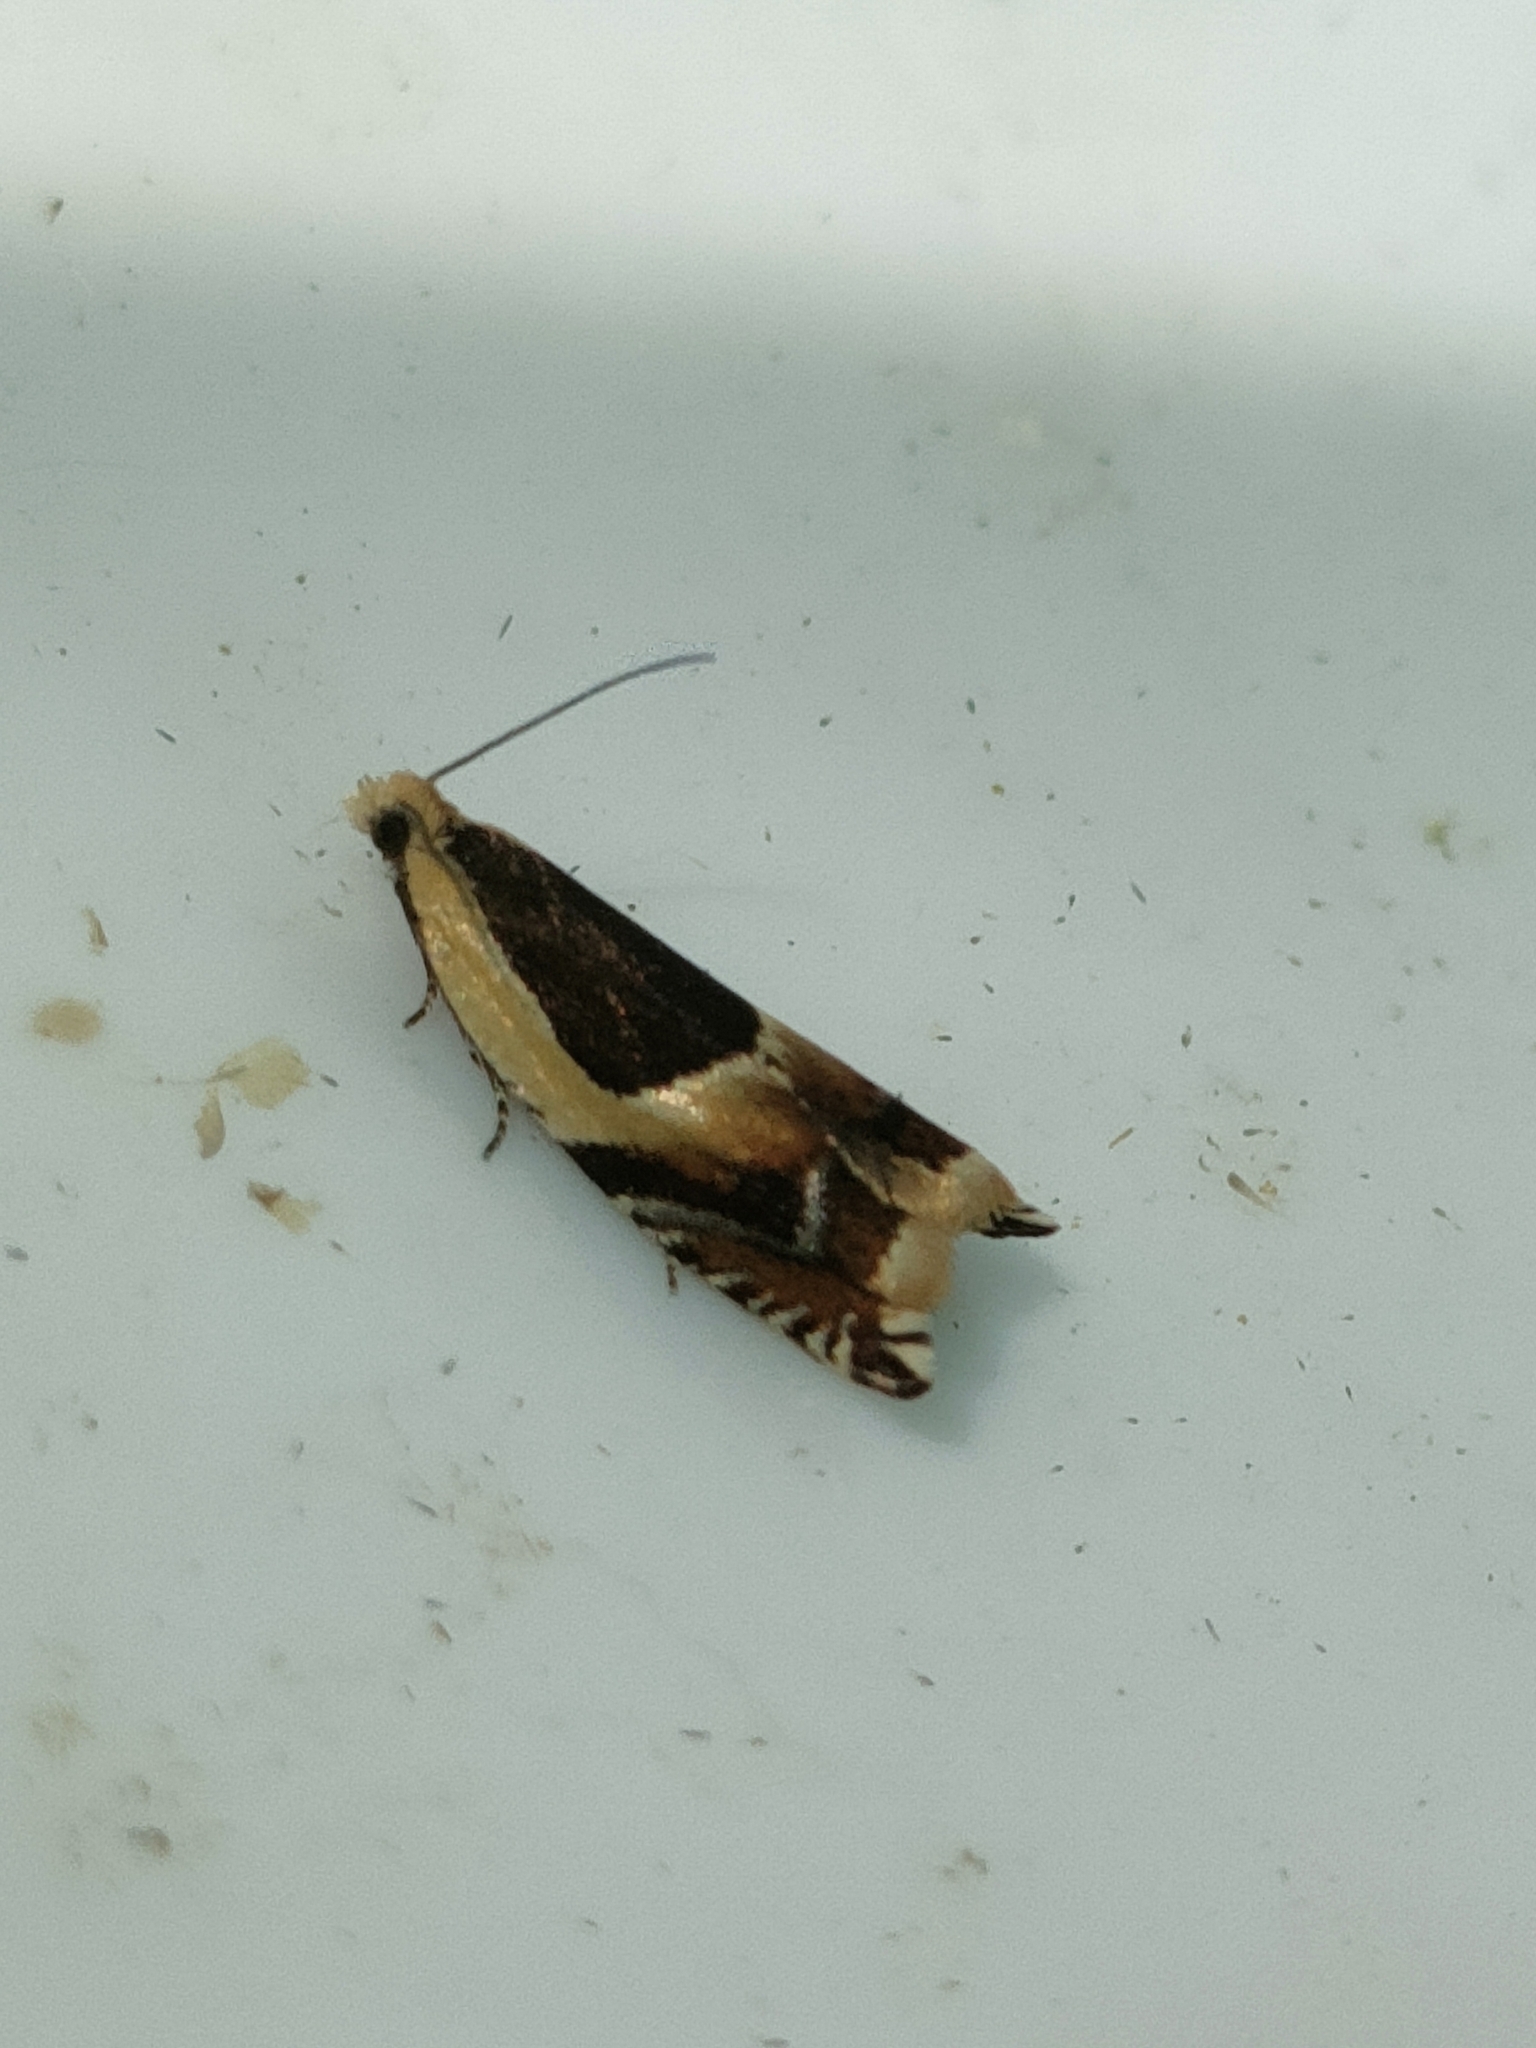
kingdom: Animalia
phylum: Arthropoda
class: Insecta
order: Lepidoptera
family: Tortricidae
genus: Ancylis
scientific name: Ancylis badiana
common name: Common roller
